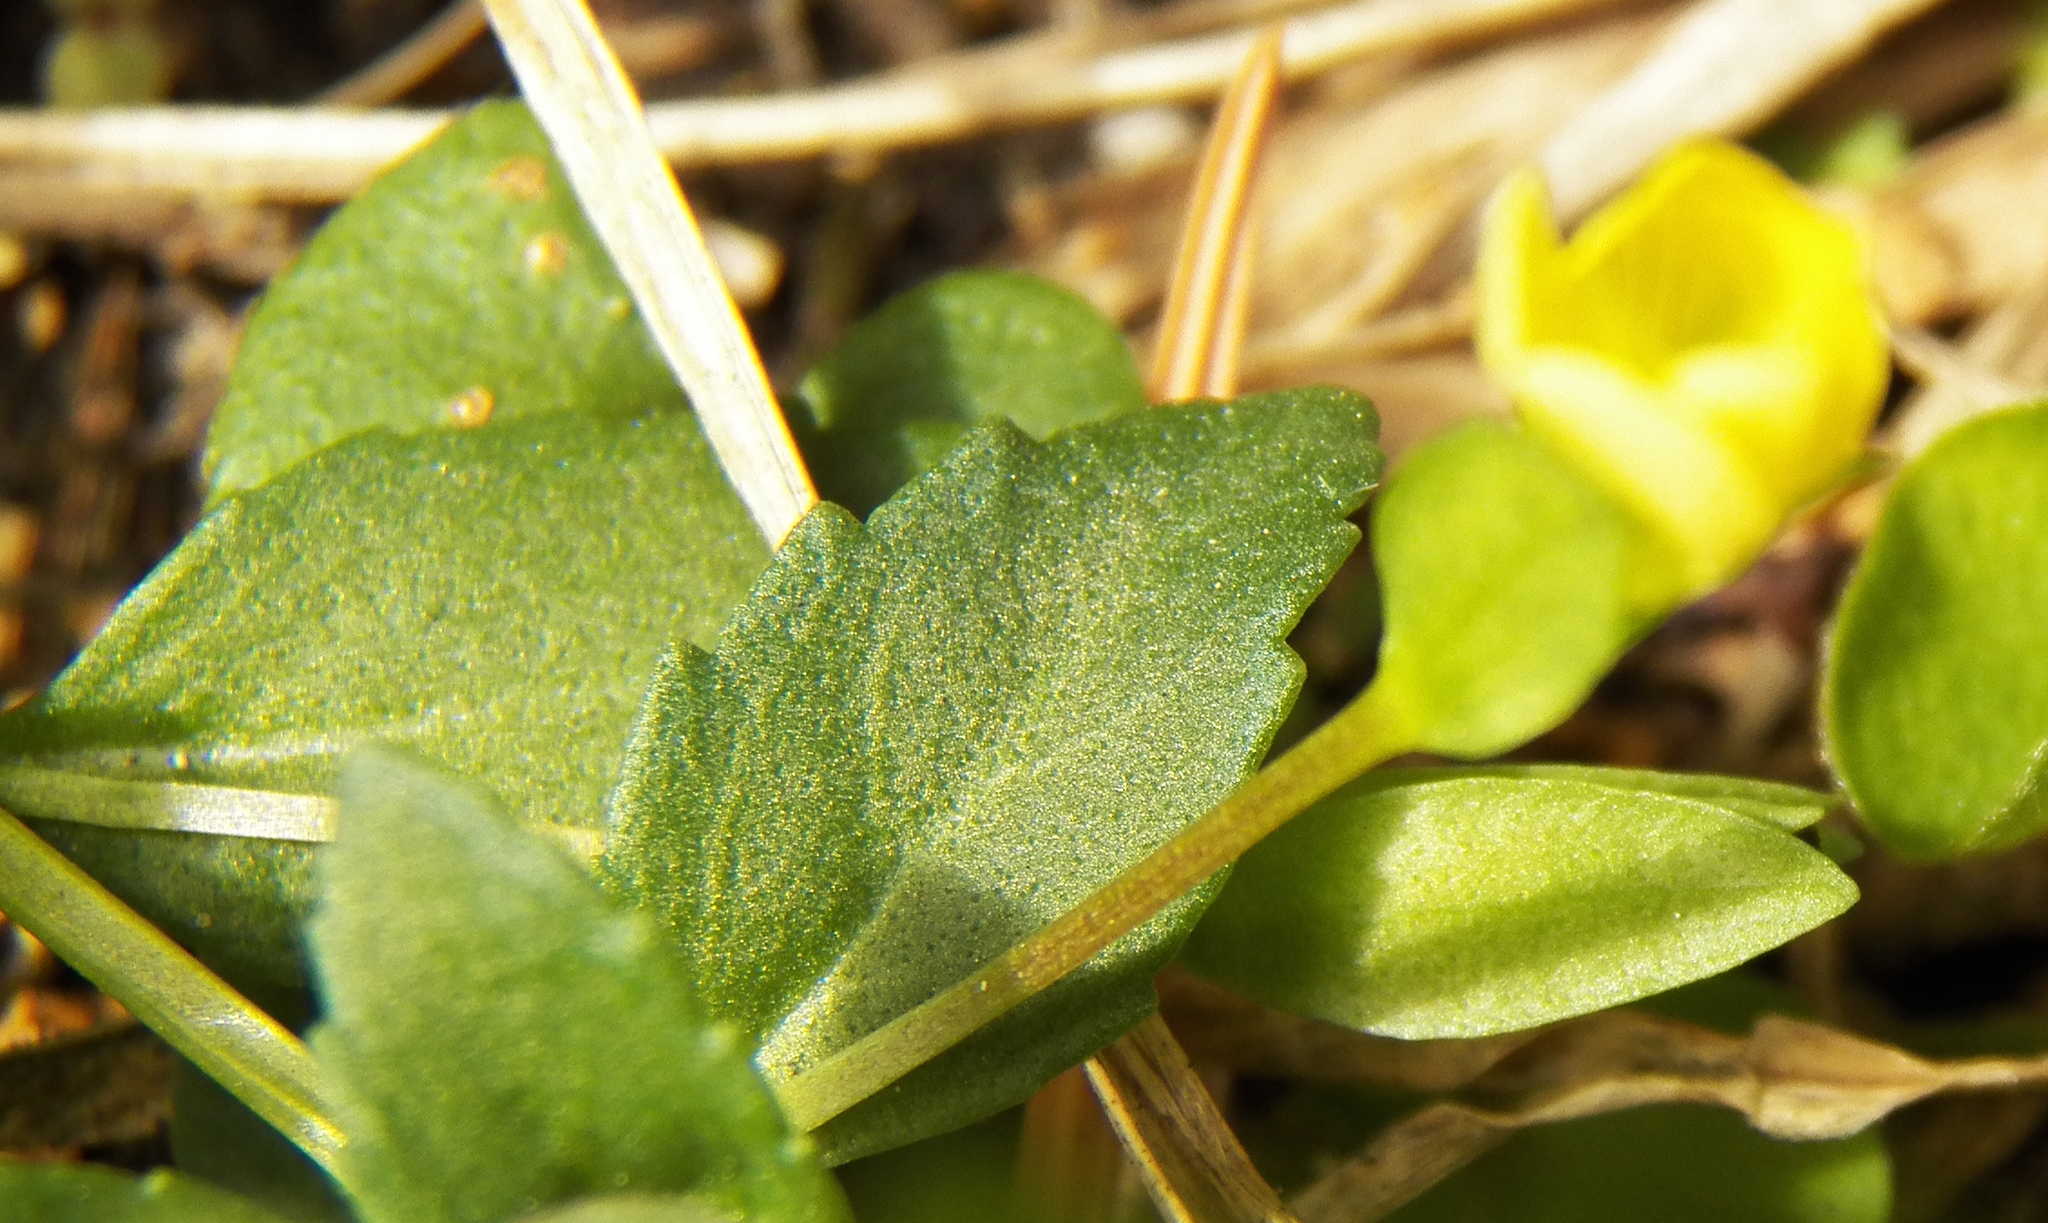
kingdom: Plantae
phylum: Tracheophyta
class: Magnoliopsida
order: Lamiales
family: Plantaginaceae
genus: Mecardonia
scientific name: Mecardonia procumbens
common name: Baby jump-up
